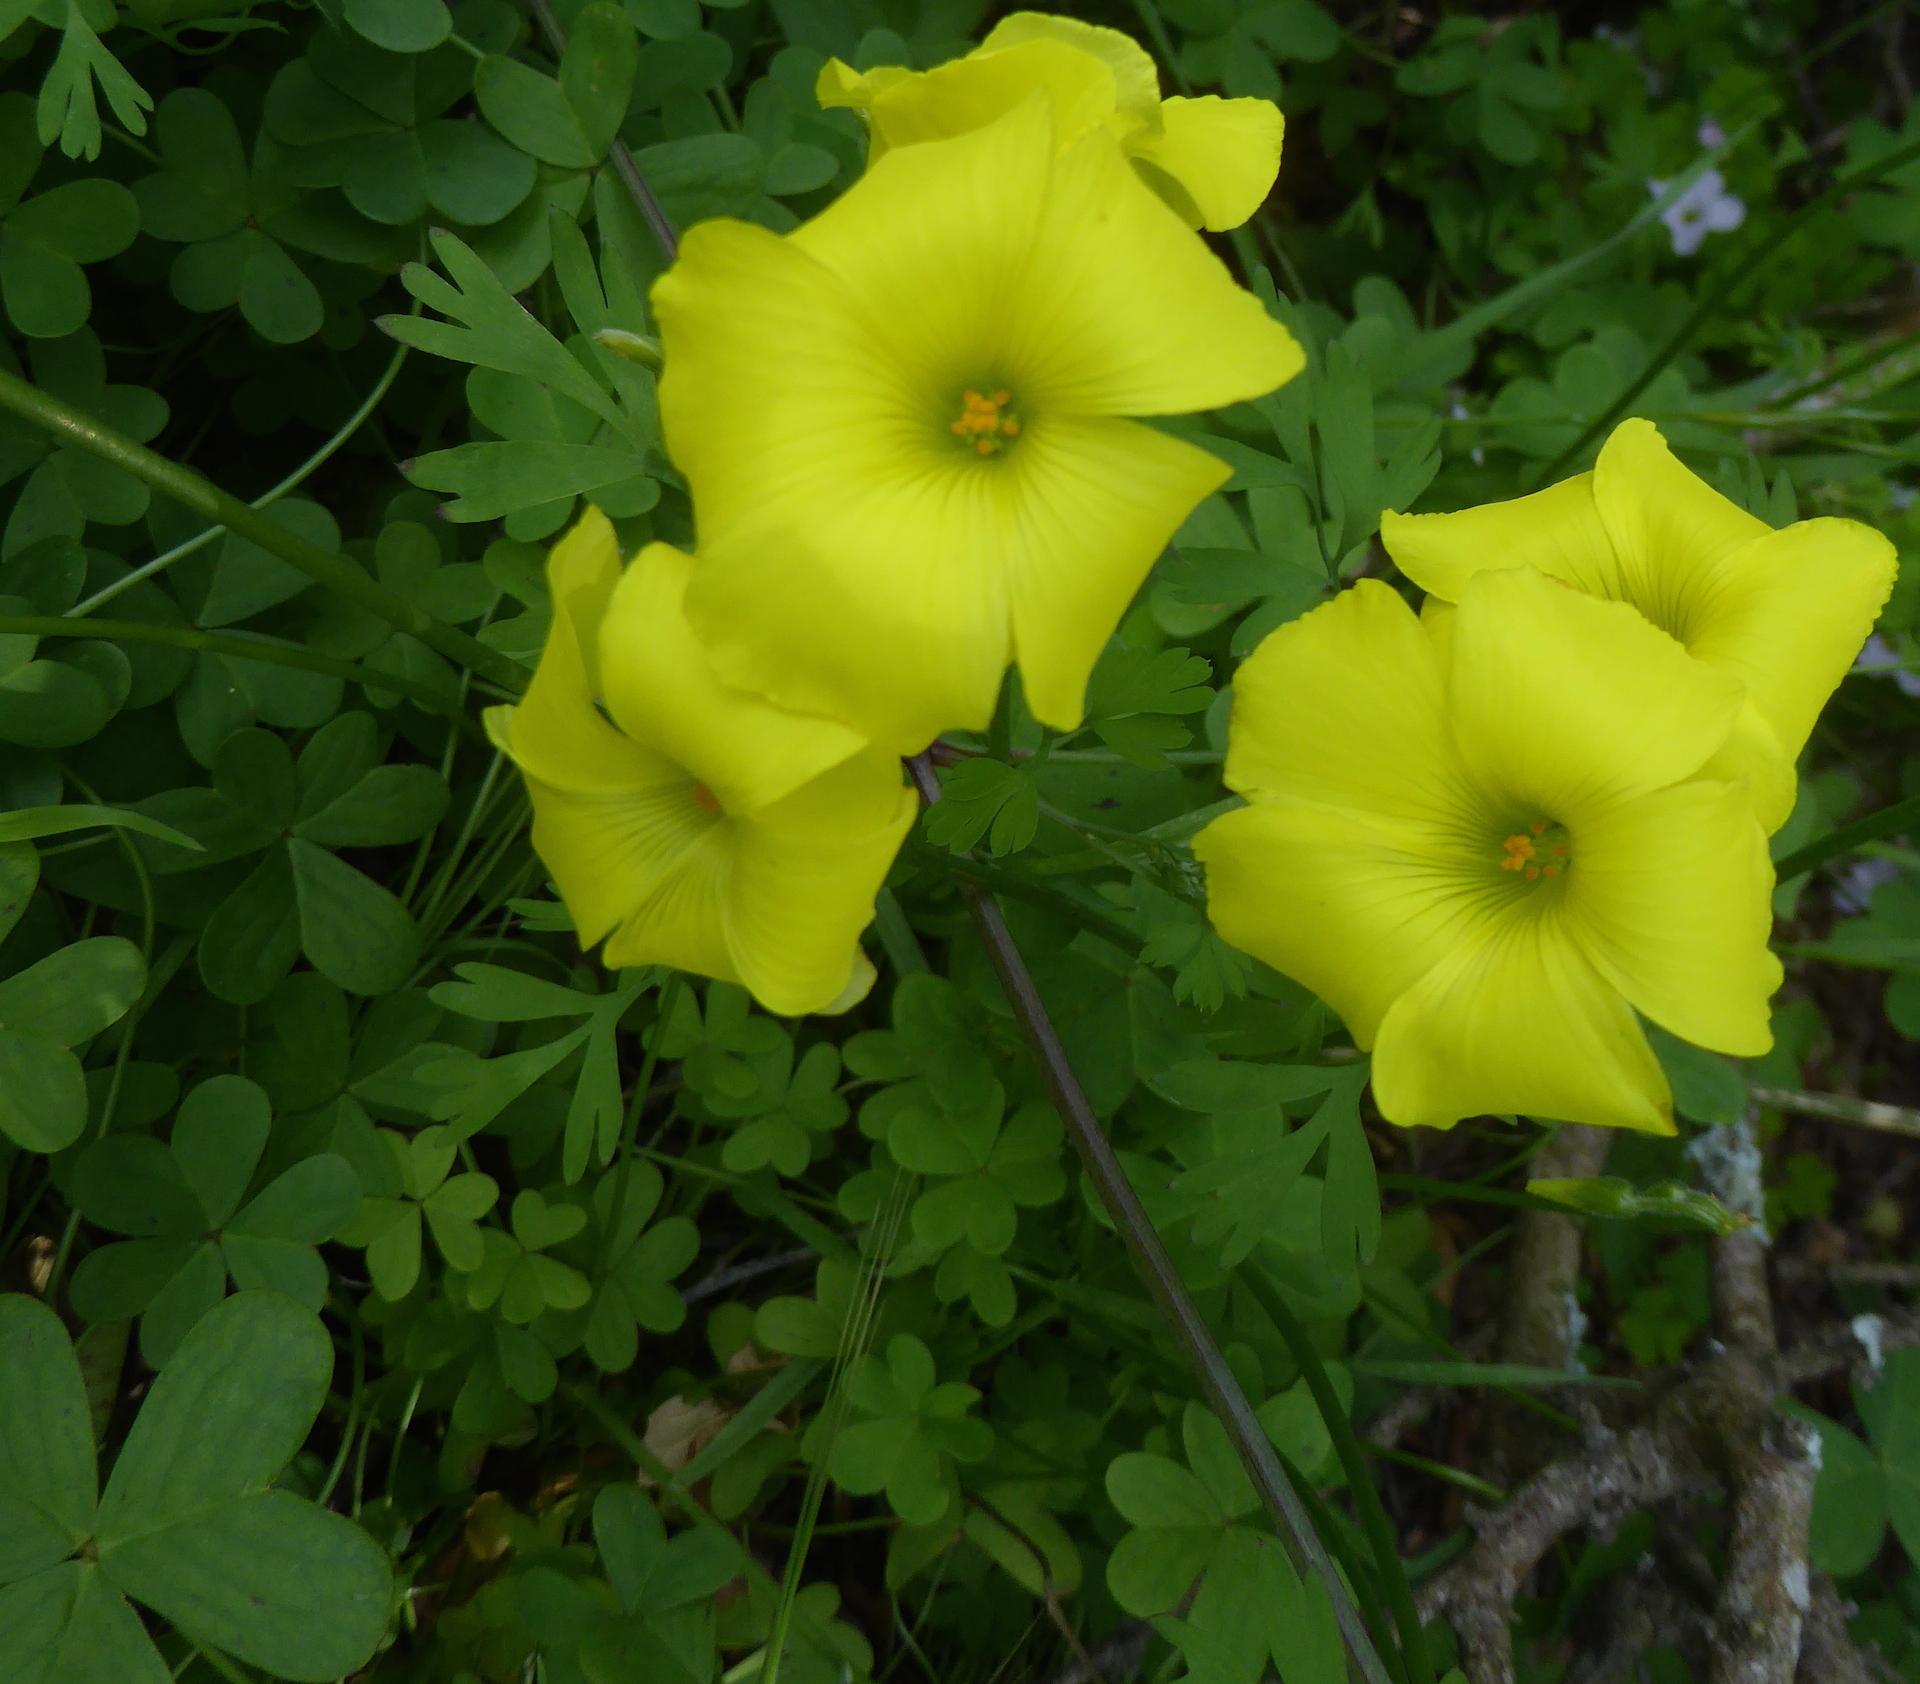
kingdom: Plantae
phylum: Tracheophyta
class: Magnoliopsida
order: Oxalidales
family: Oxalidaceae
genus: Oxalis
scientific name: Oxalis pes-caprae
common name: Bermuda-buttercup
